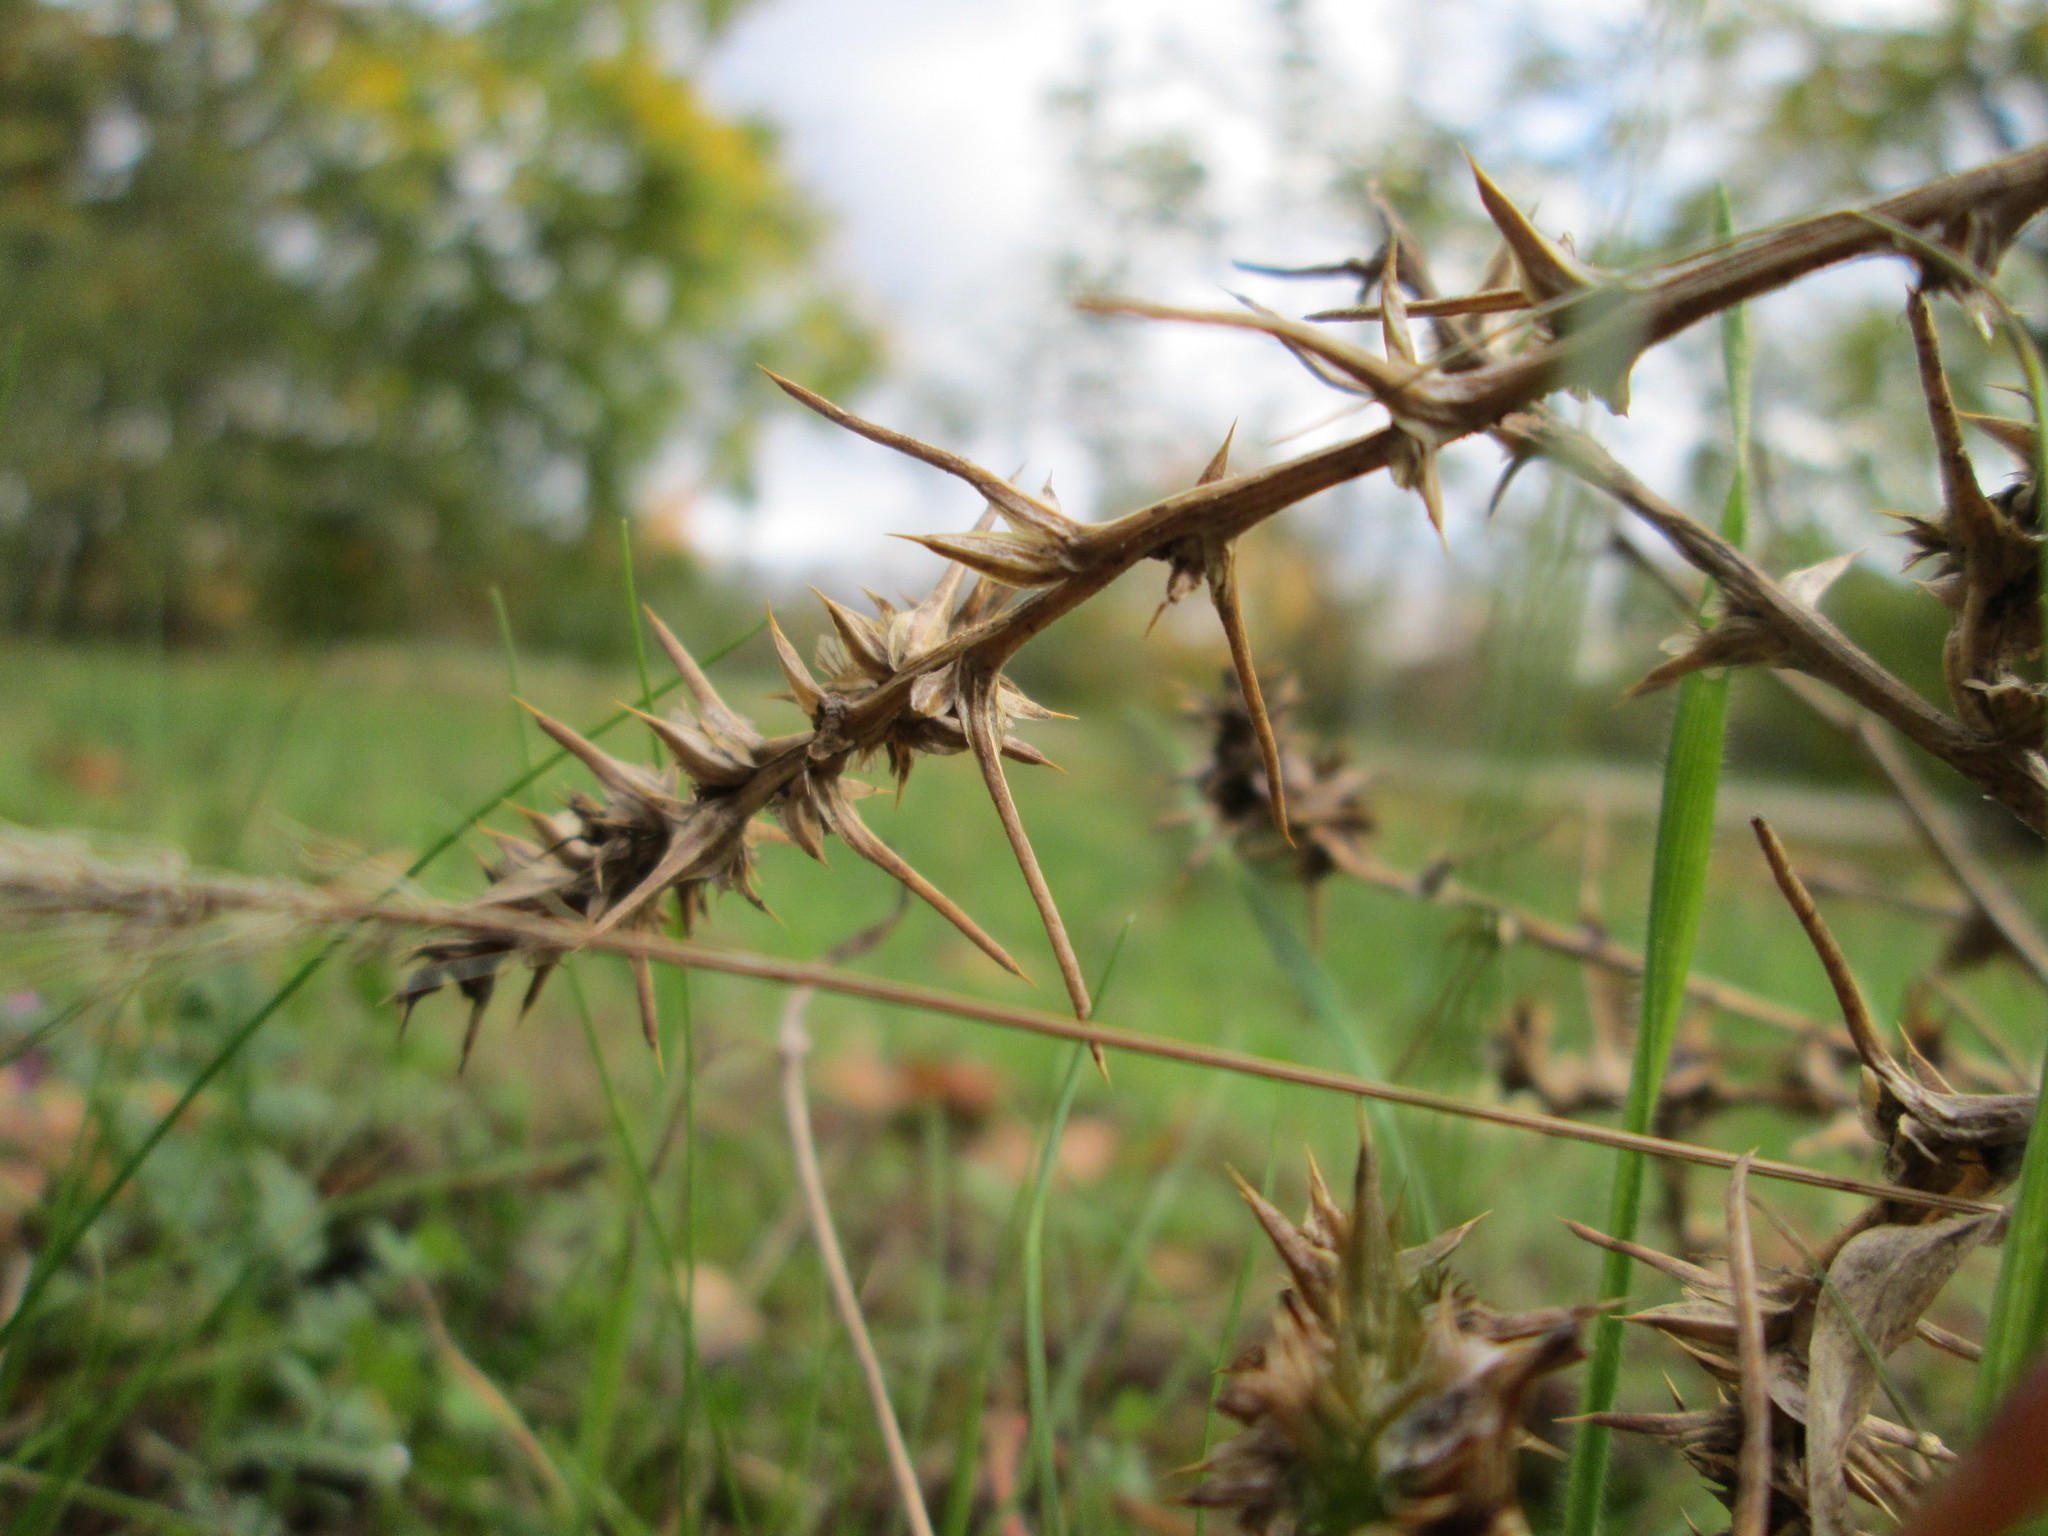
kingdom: Plantae
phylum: Tracheophyta
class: Magnoliopsida
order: Caryophyllales
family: Amaranthaceae
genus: Salsola
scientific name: Salsola tragus
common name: Prickly russian thistle
